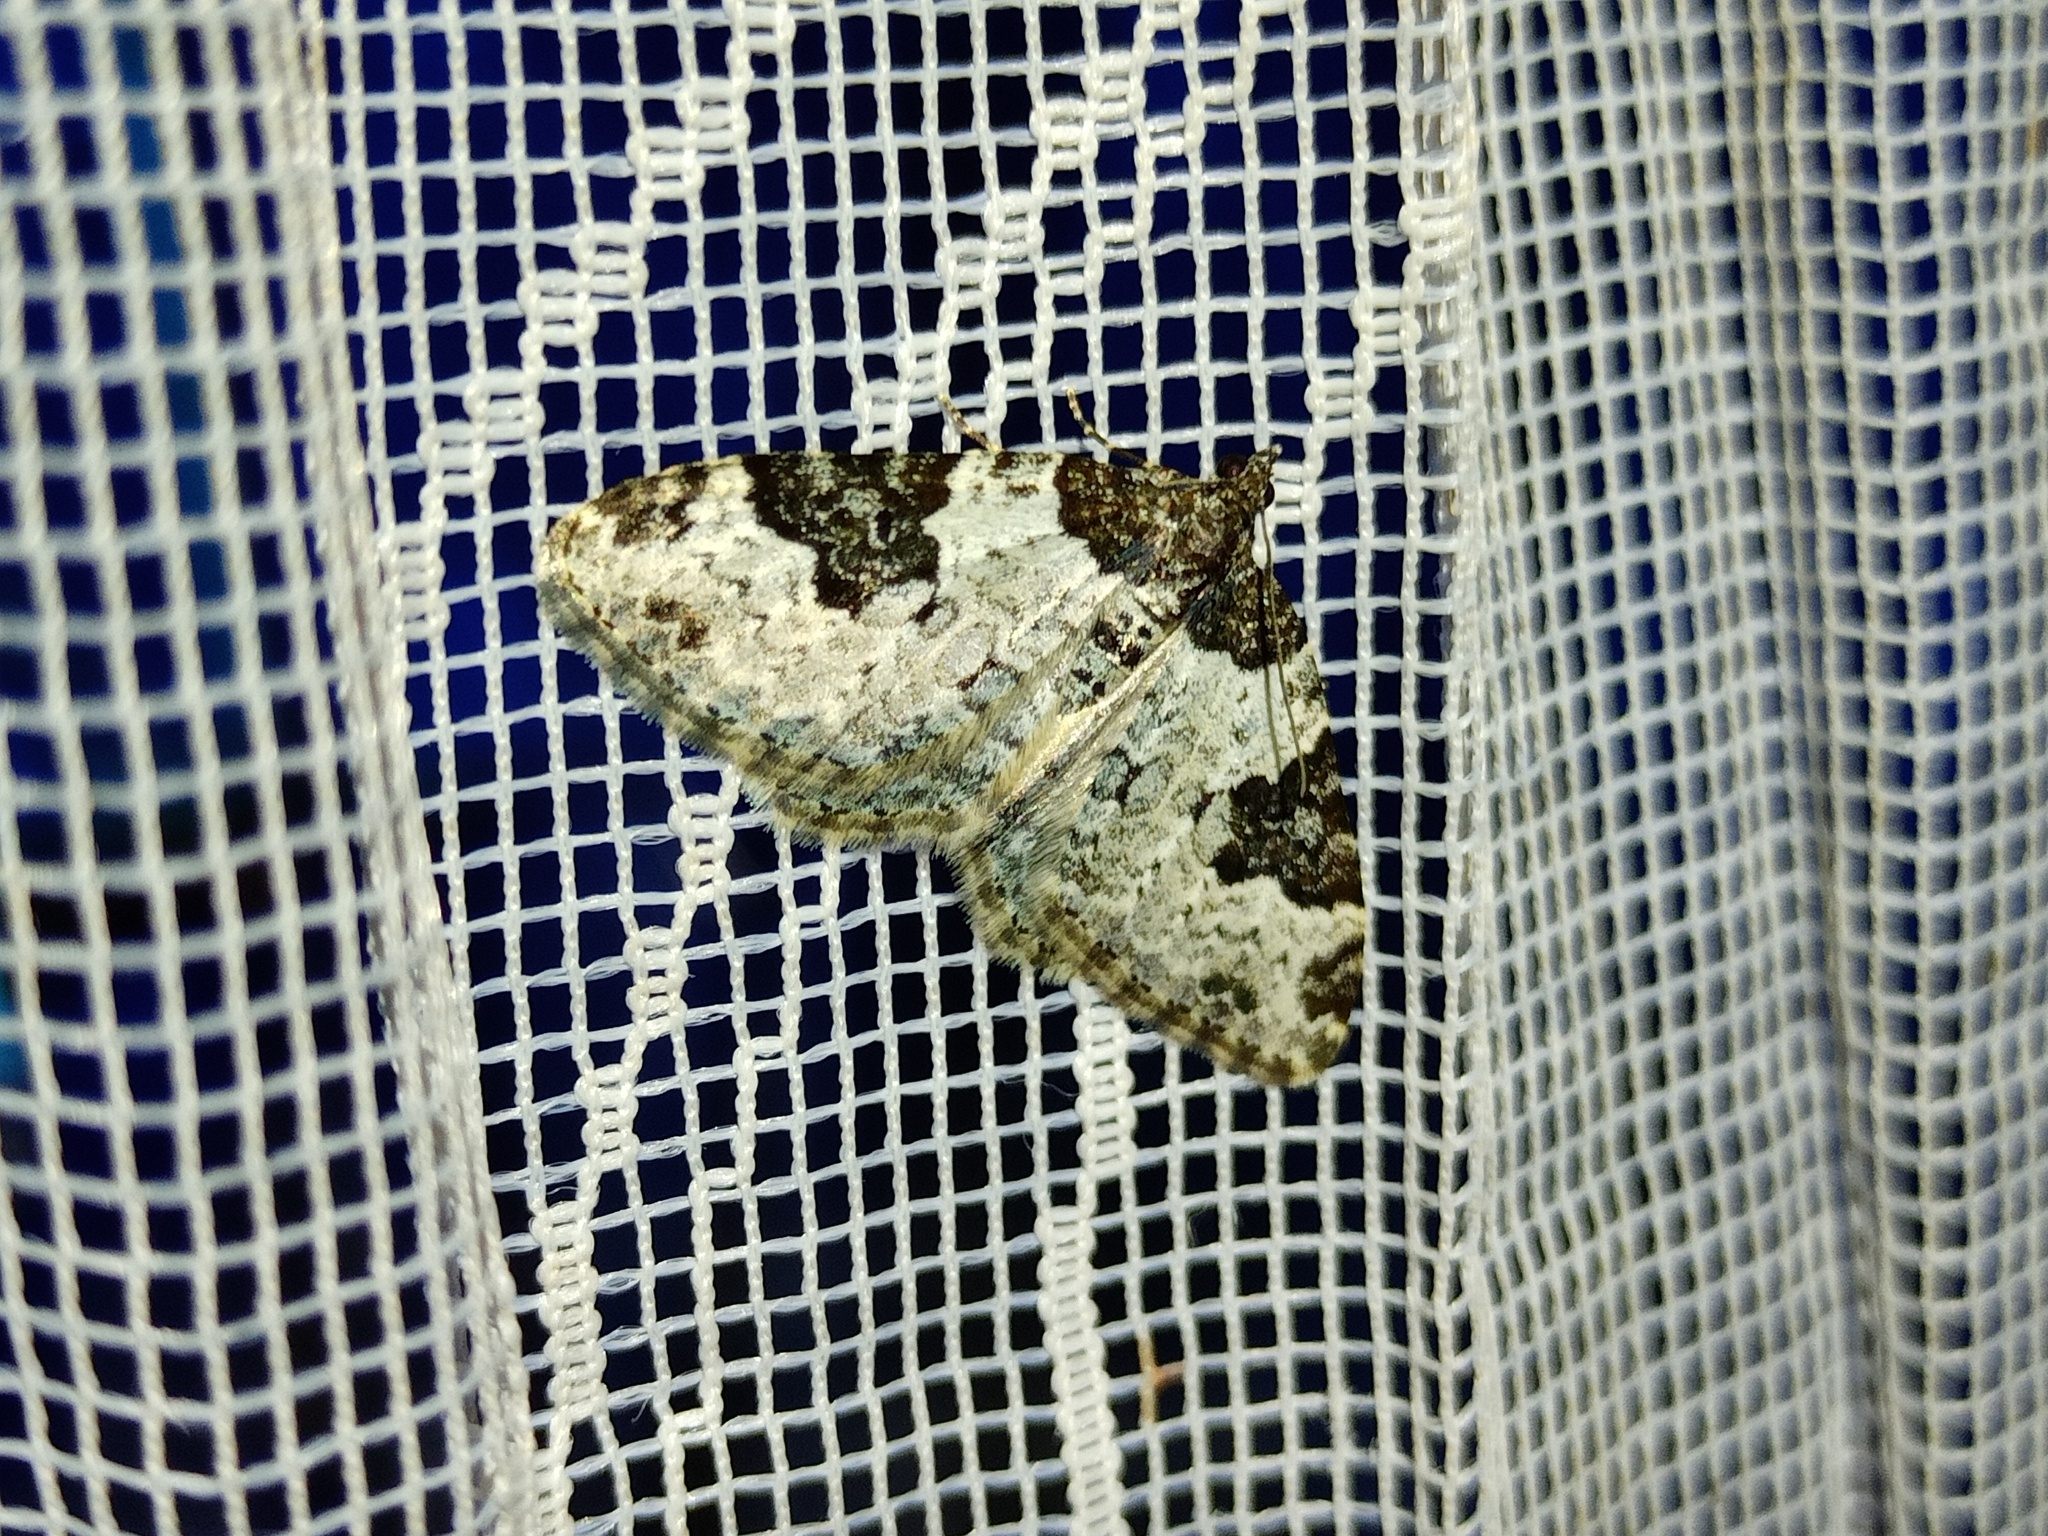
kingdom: Animalia
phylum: Arthropoda
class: Insecta
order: Lepidoptera
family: Geometridae
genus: Xanthorhoe
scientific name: Xanthorhoe fluctuata
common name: Garden carpet
